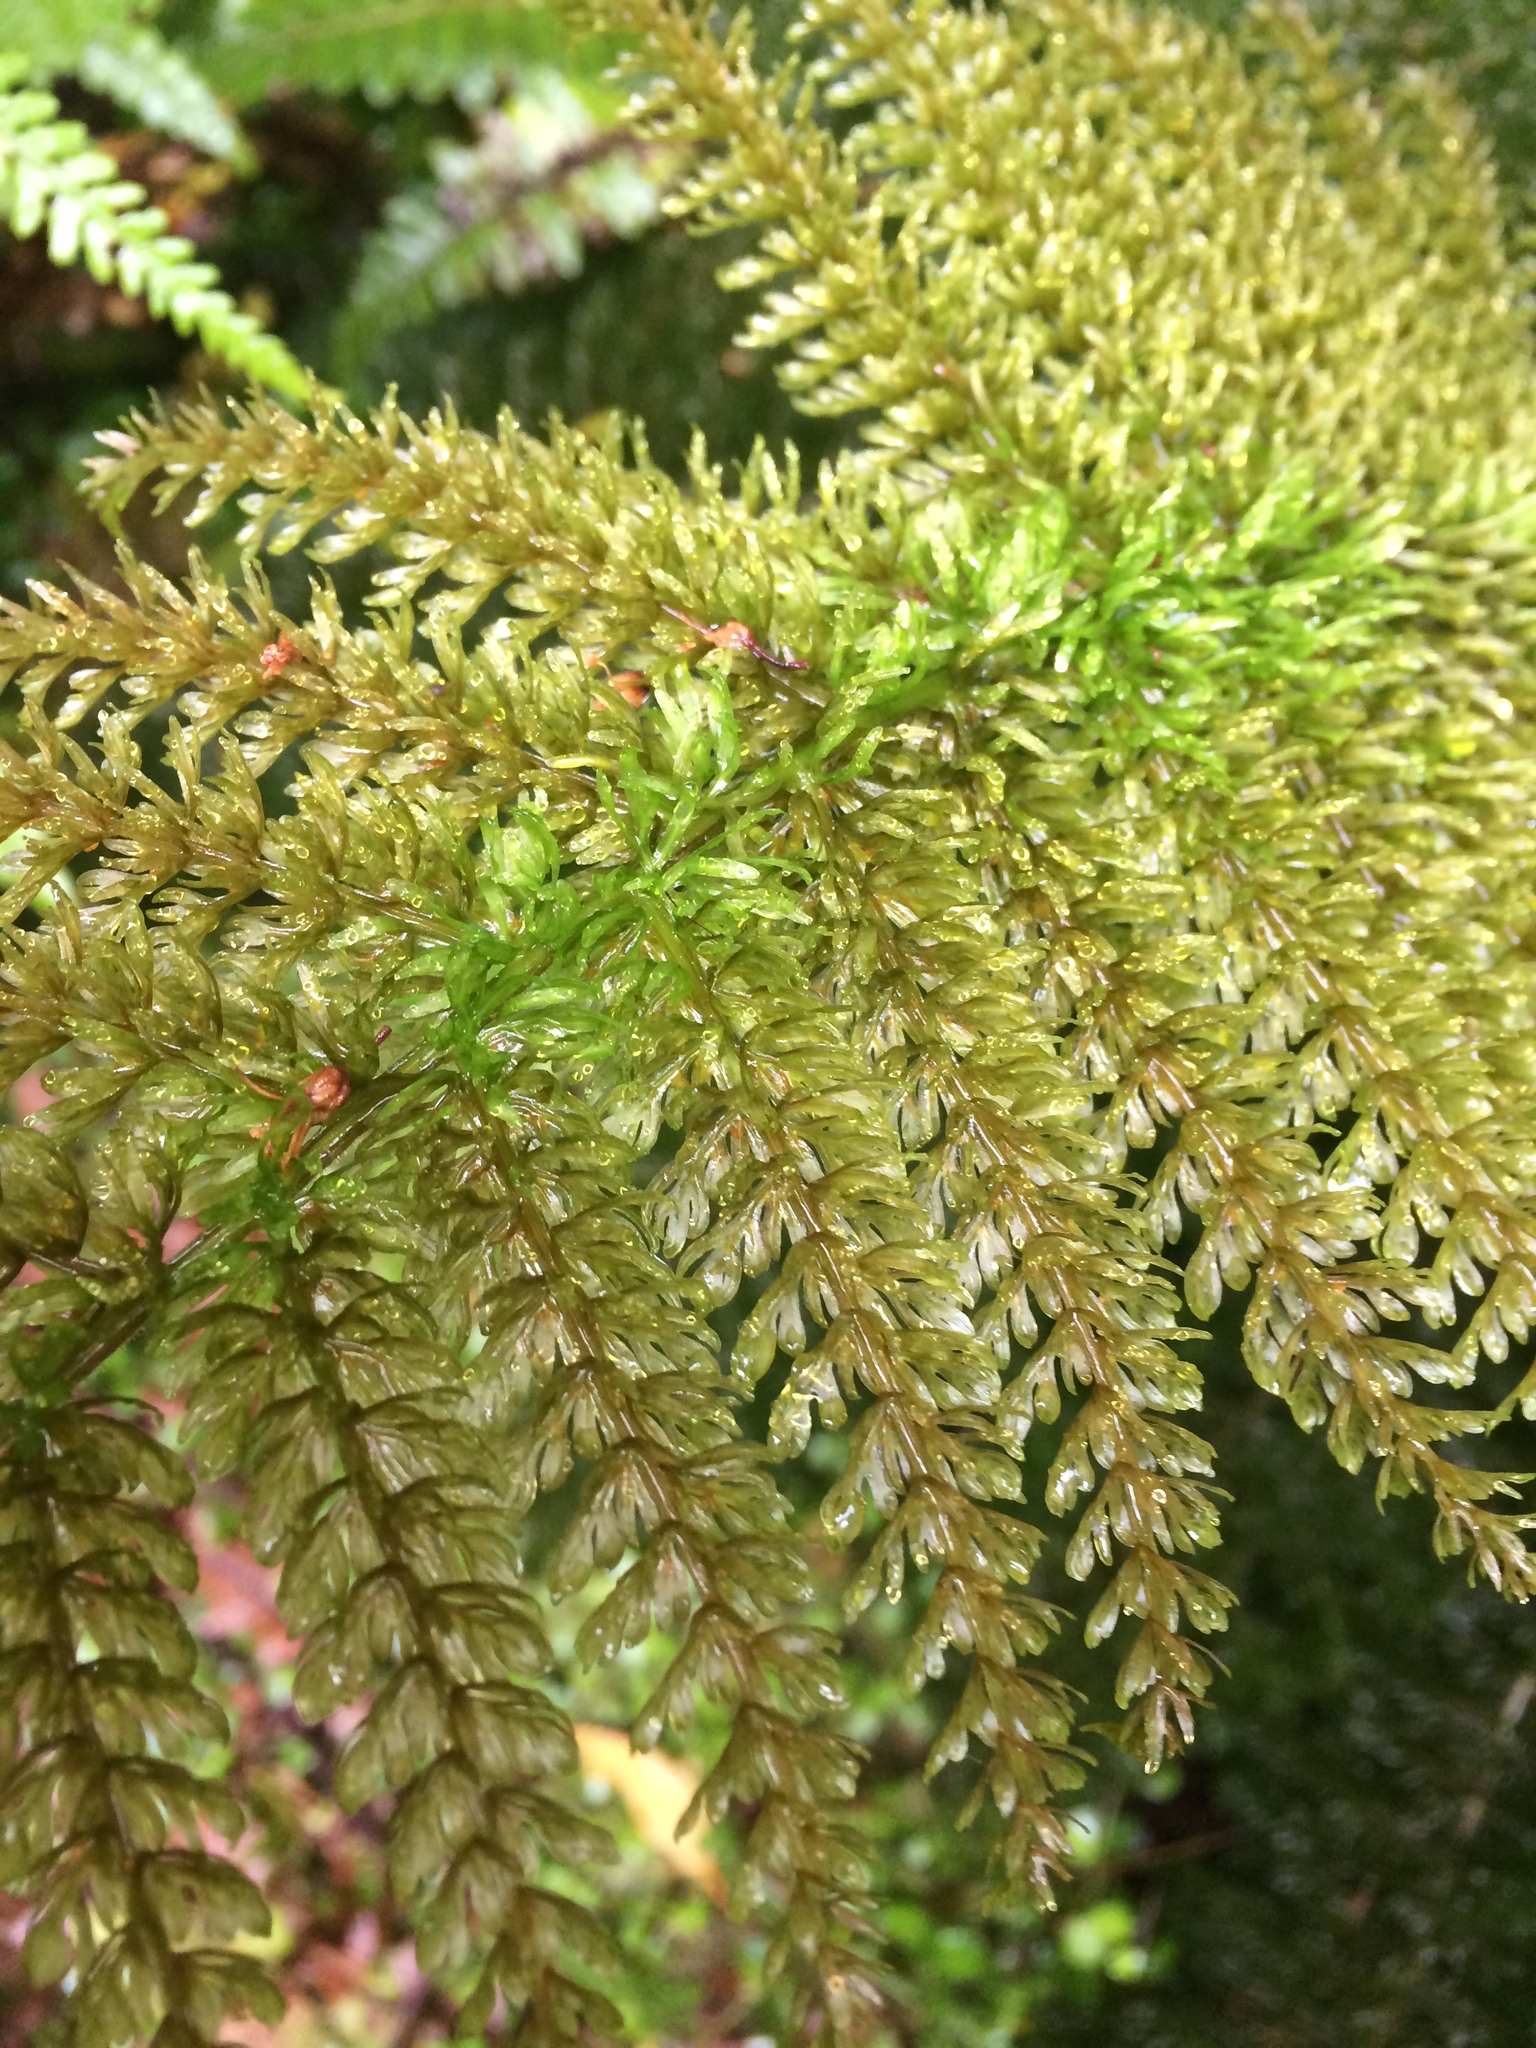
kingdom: Plantae
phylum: Tracheophyta
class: Polypodiopsida
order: Osmundales
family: Osmundaceae
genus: Leptopteris
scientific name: Leptopteris superba
